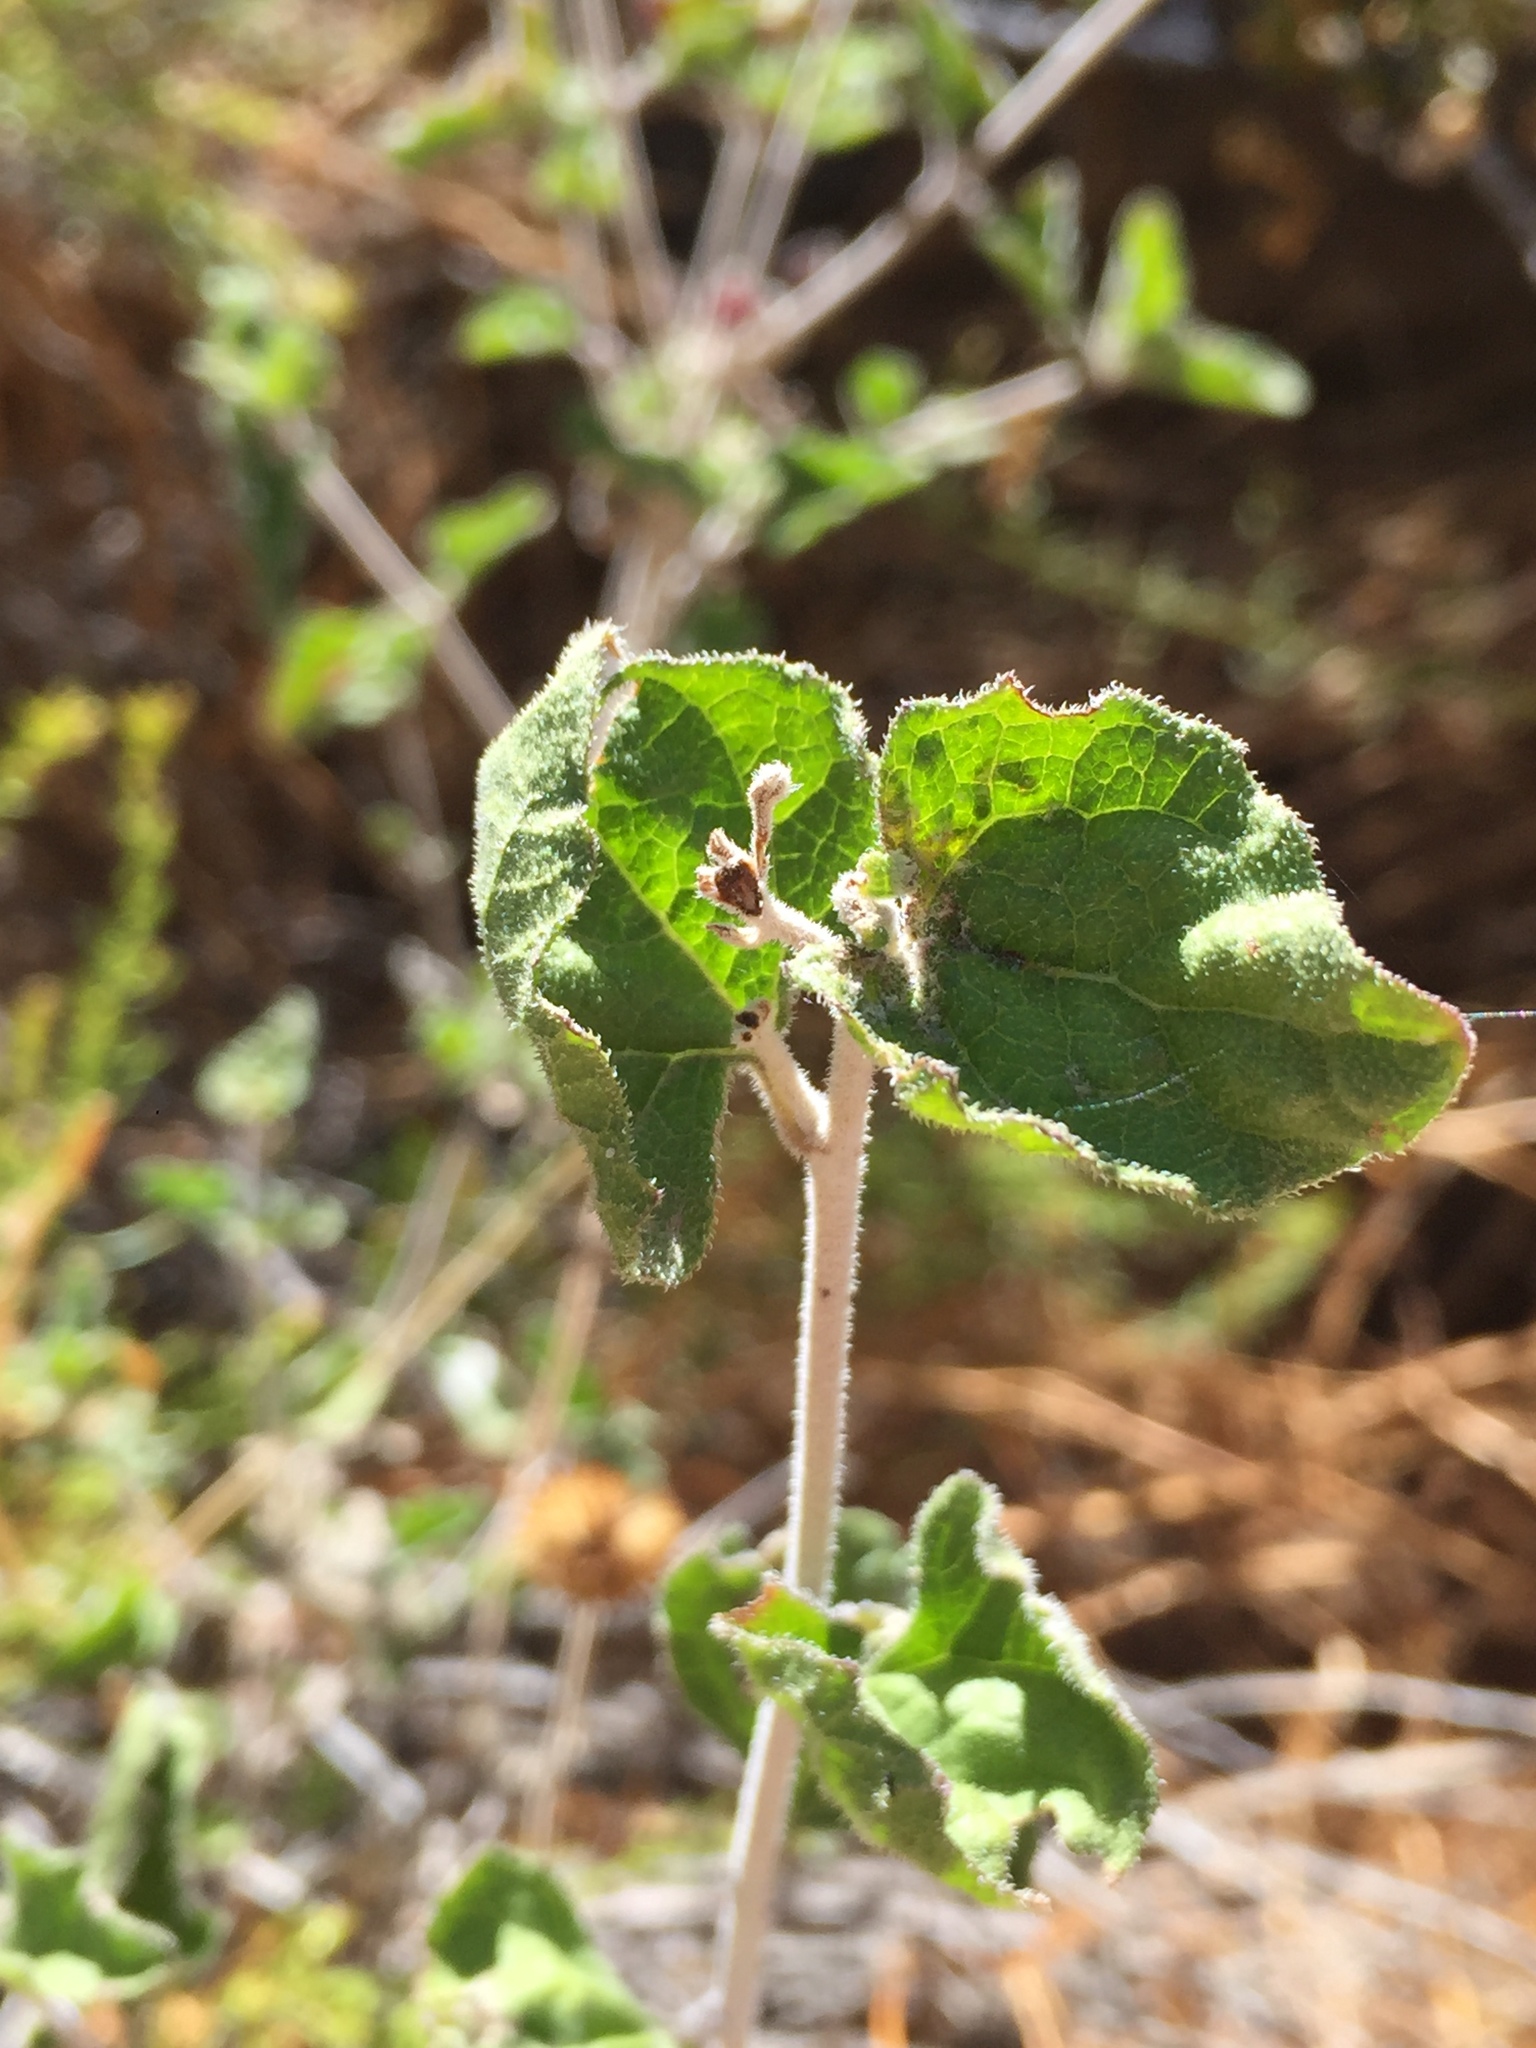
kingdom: Plantae
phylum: Tracheophyta
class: Magnoliopsida
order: Asterales
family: Asteraceae
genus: Bahiopsis
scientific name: Bahiopsis parishii
